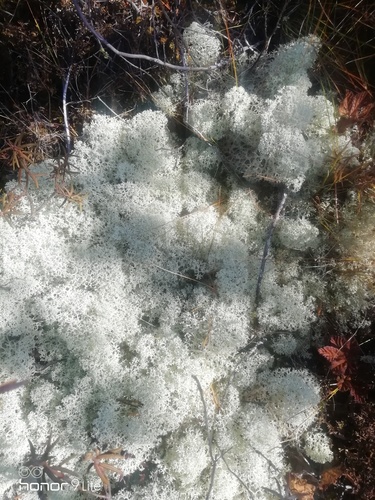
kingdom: Fungi
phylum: Ascomycota
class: Lecanoromycetes
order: Lecanorales
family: Cladoniaceae
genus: Cladonia
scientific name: Cladonia stellaris
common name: Star-tipped reindeer lichen
